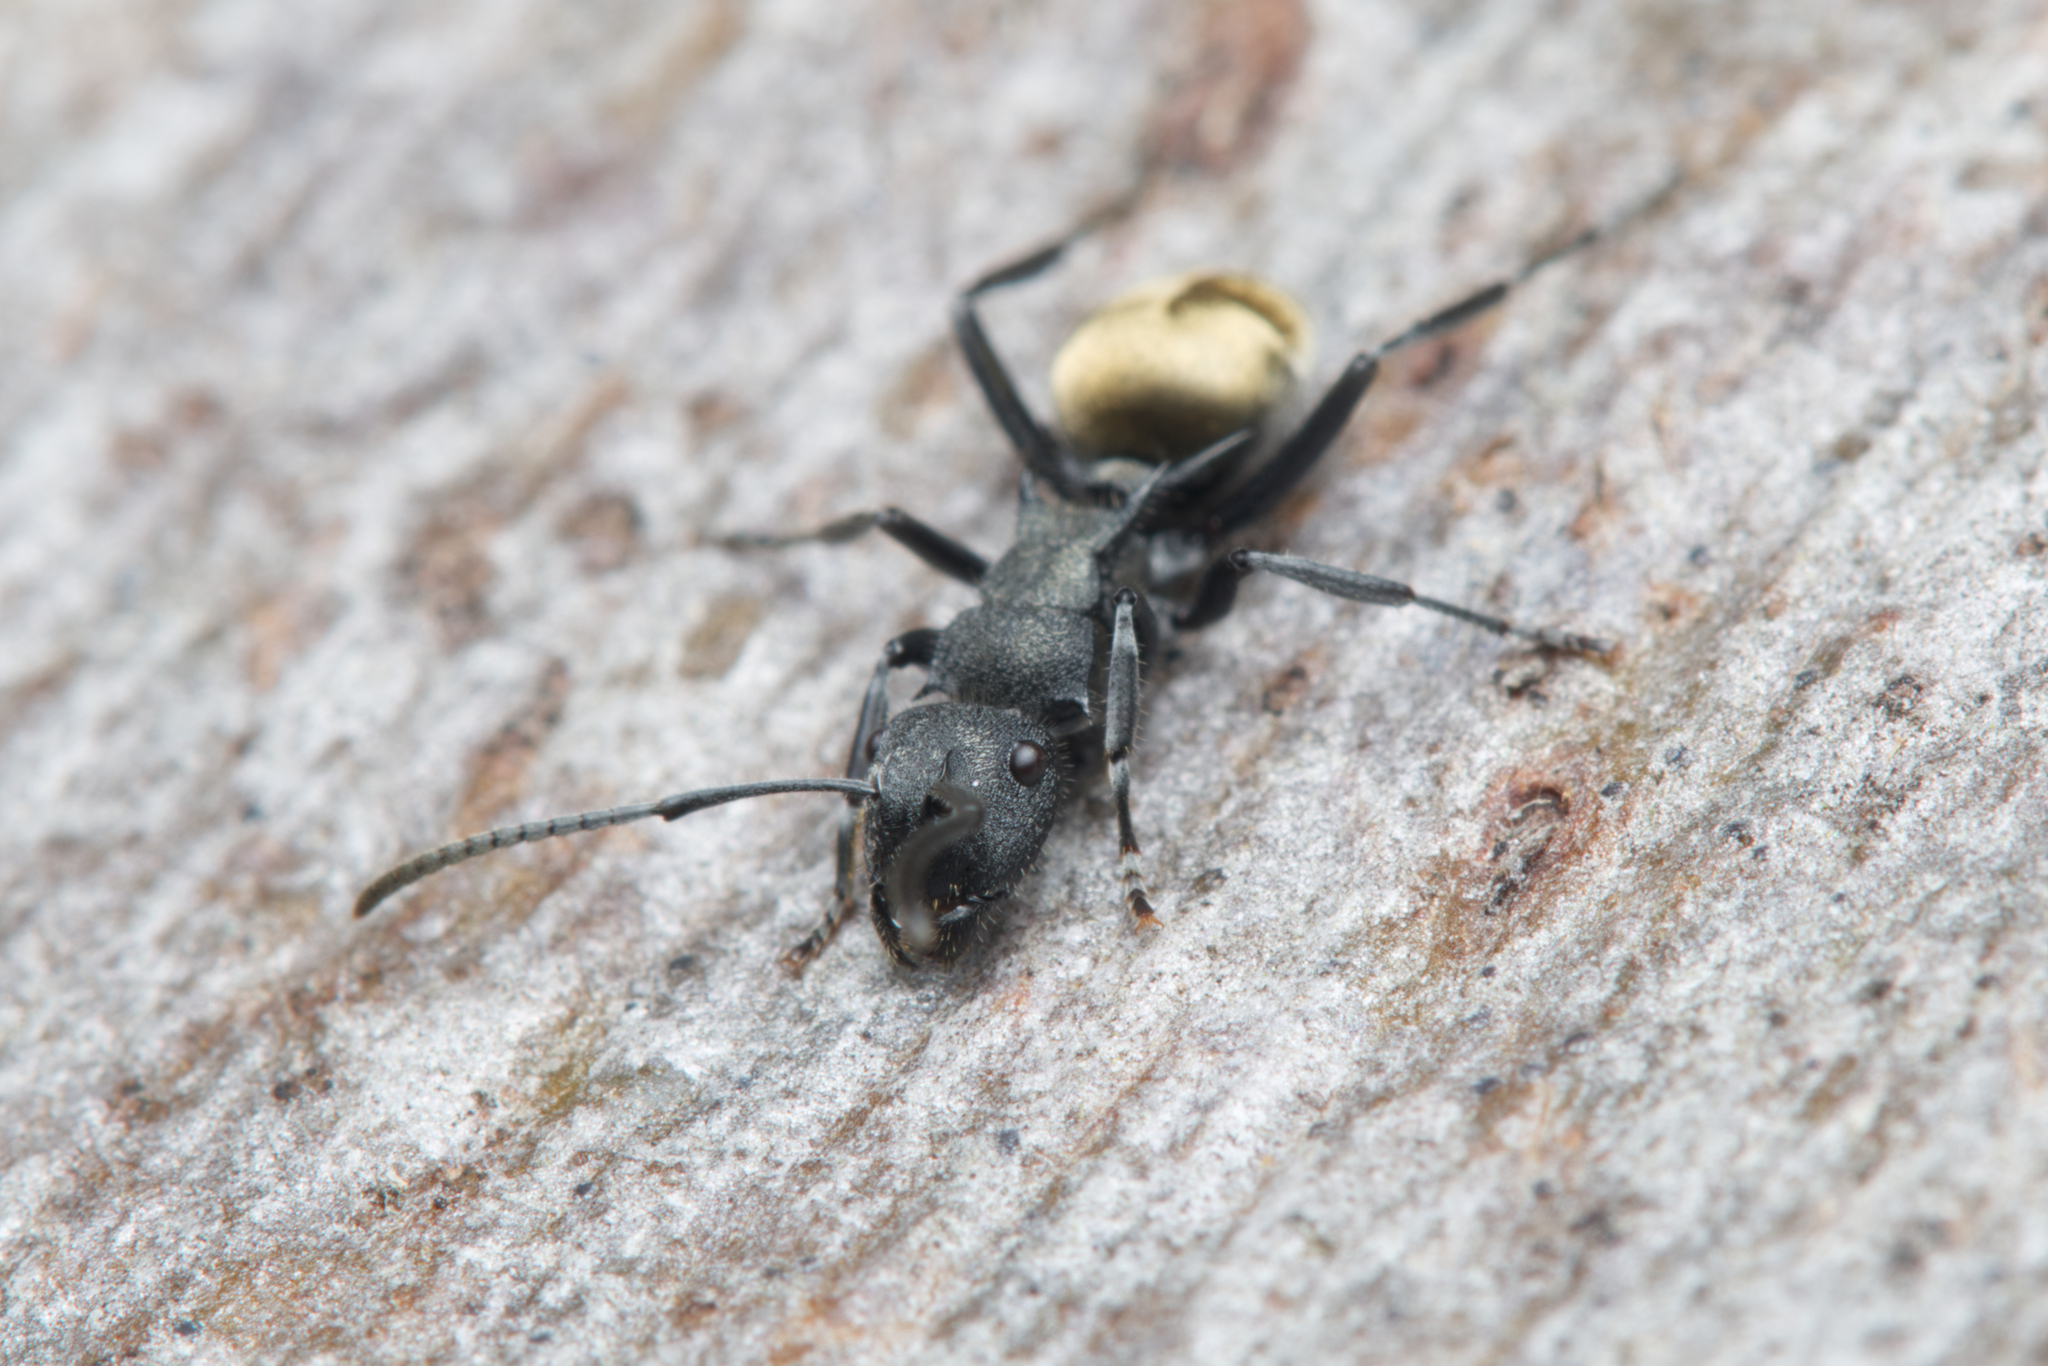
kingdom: Animalia
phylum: Arthropoda
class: Insecta
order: Hymenoptera
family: Formicidae
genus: Polyrhachis
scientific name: Polyrhachis erato
